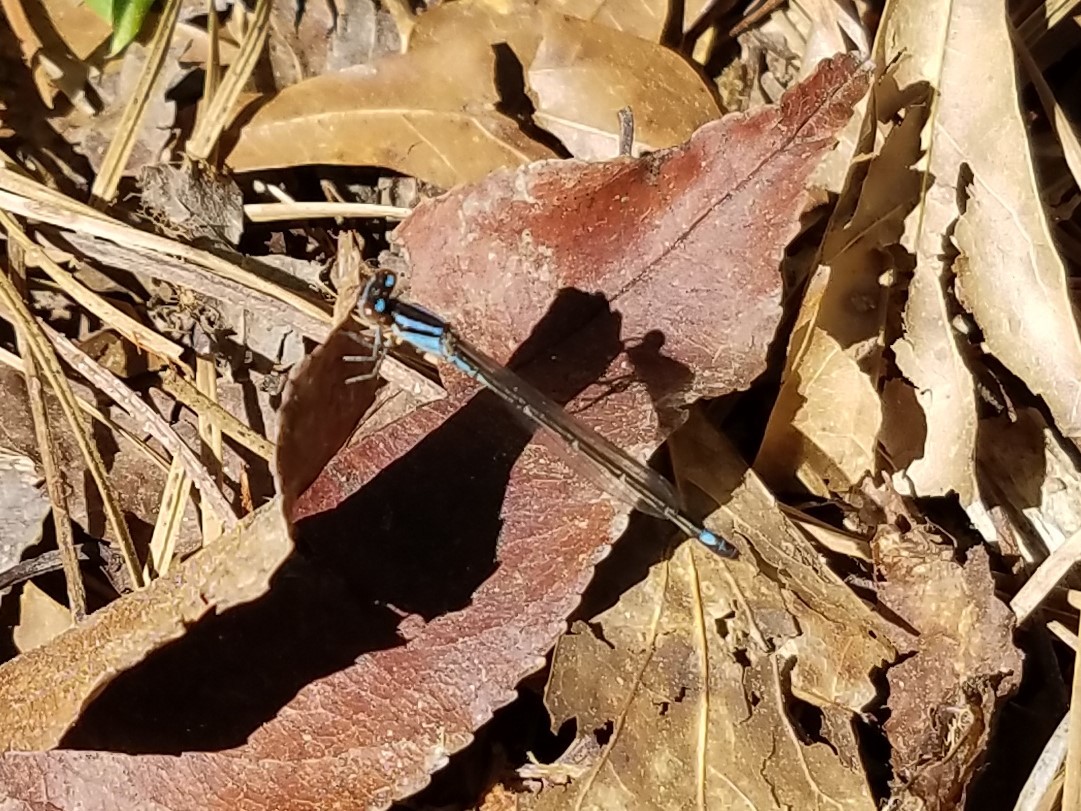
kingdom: Animalia
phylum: Arthropoda
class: Insecta
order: Odonata
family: Coenagrionidae
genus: Enallagma
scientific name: Enallagma geminatum
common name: Skimming bluet
